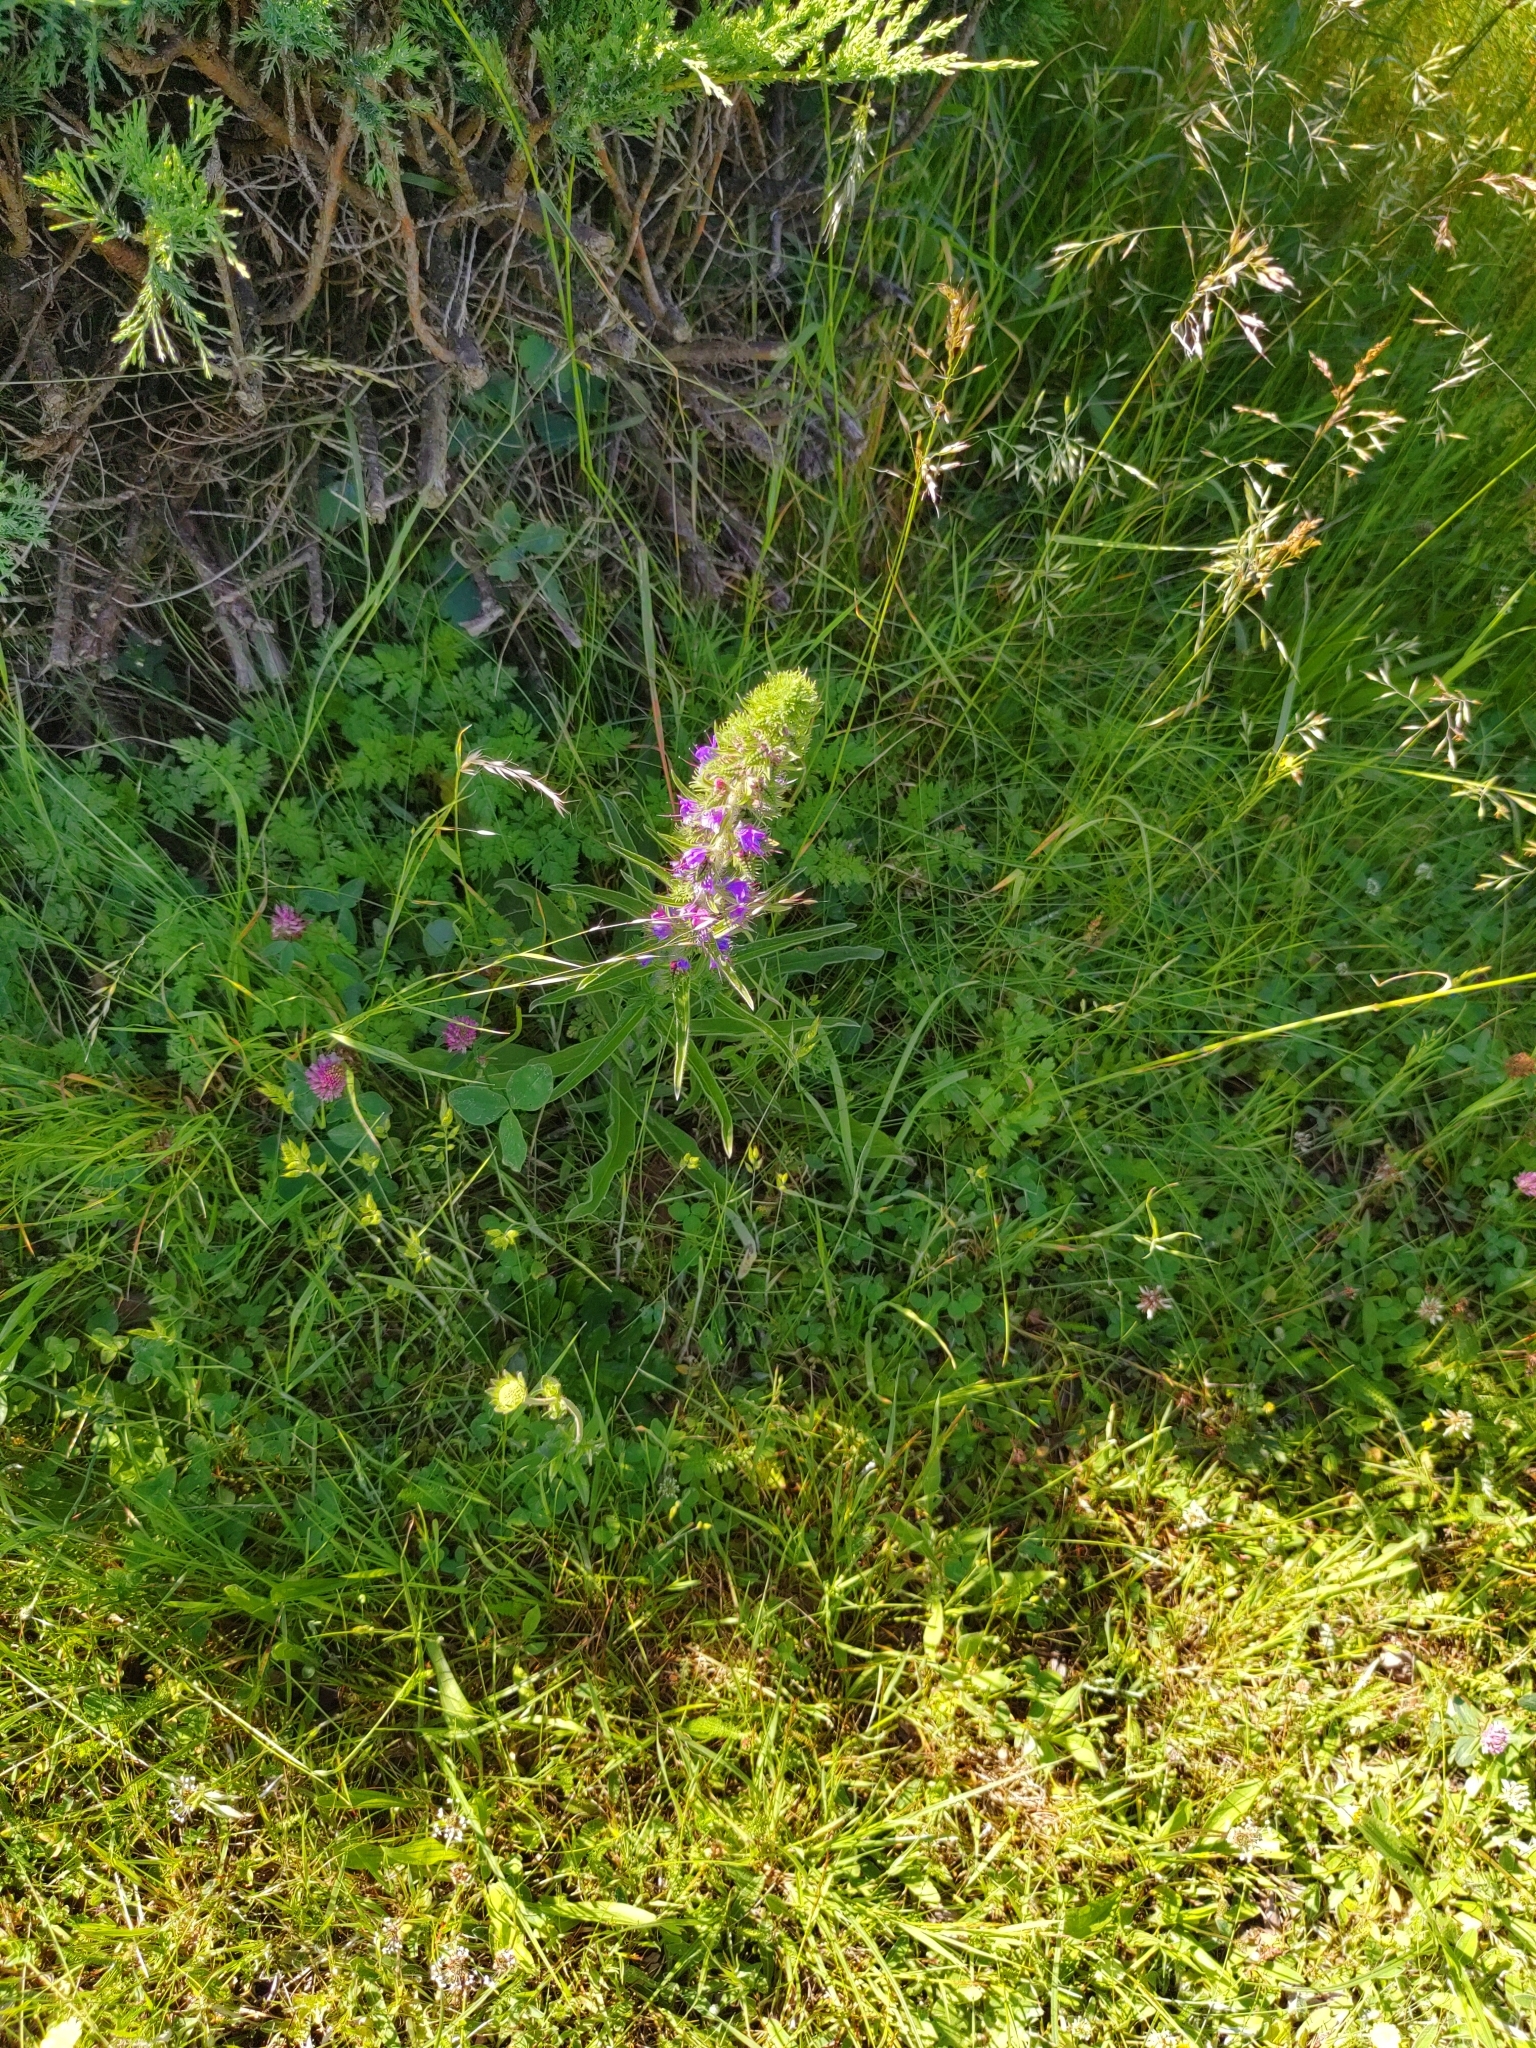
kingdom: Plantae
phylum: Tracheophyta
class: Magnoliopsida
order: Boraginales
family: Boraginaceae
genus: Echium
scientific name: Echium vulgare
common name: Common viper's bugloss
